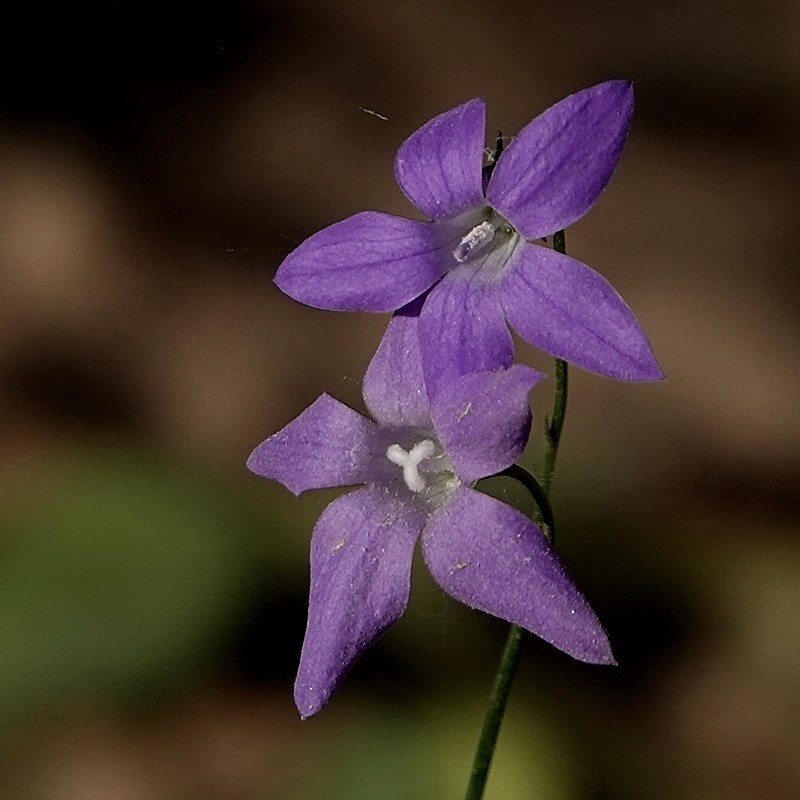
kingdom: Plantae
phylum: Tracheophyta
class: Magnoliopsida
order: Asterales
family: Campanulaceae
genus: Wahlenbergia
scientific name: Wahlenbergia capillaris
